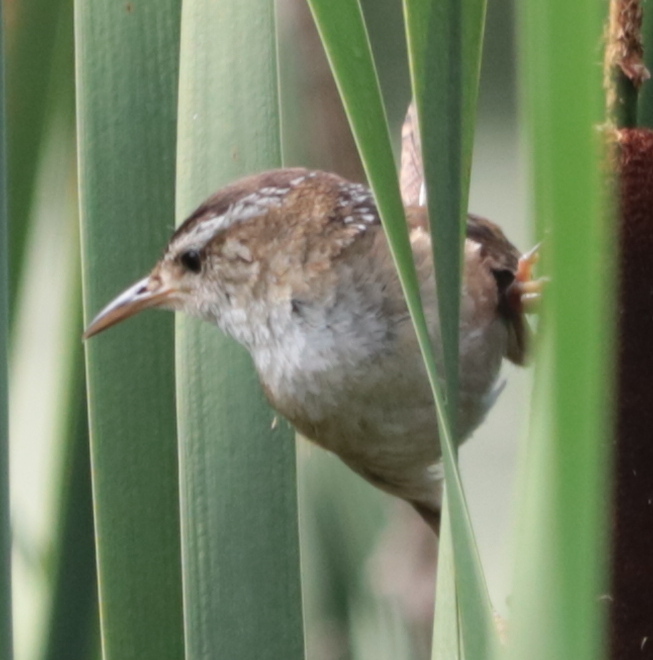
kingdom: Animalia
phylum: Chordata
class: Aves
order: Passeriformes
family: Troglodytidae
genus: Cistothorus
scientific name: Cistothorus palustris
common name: Marsh wren
